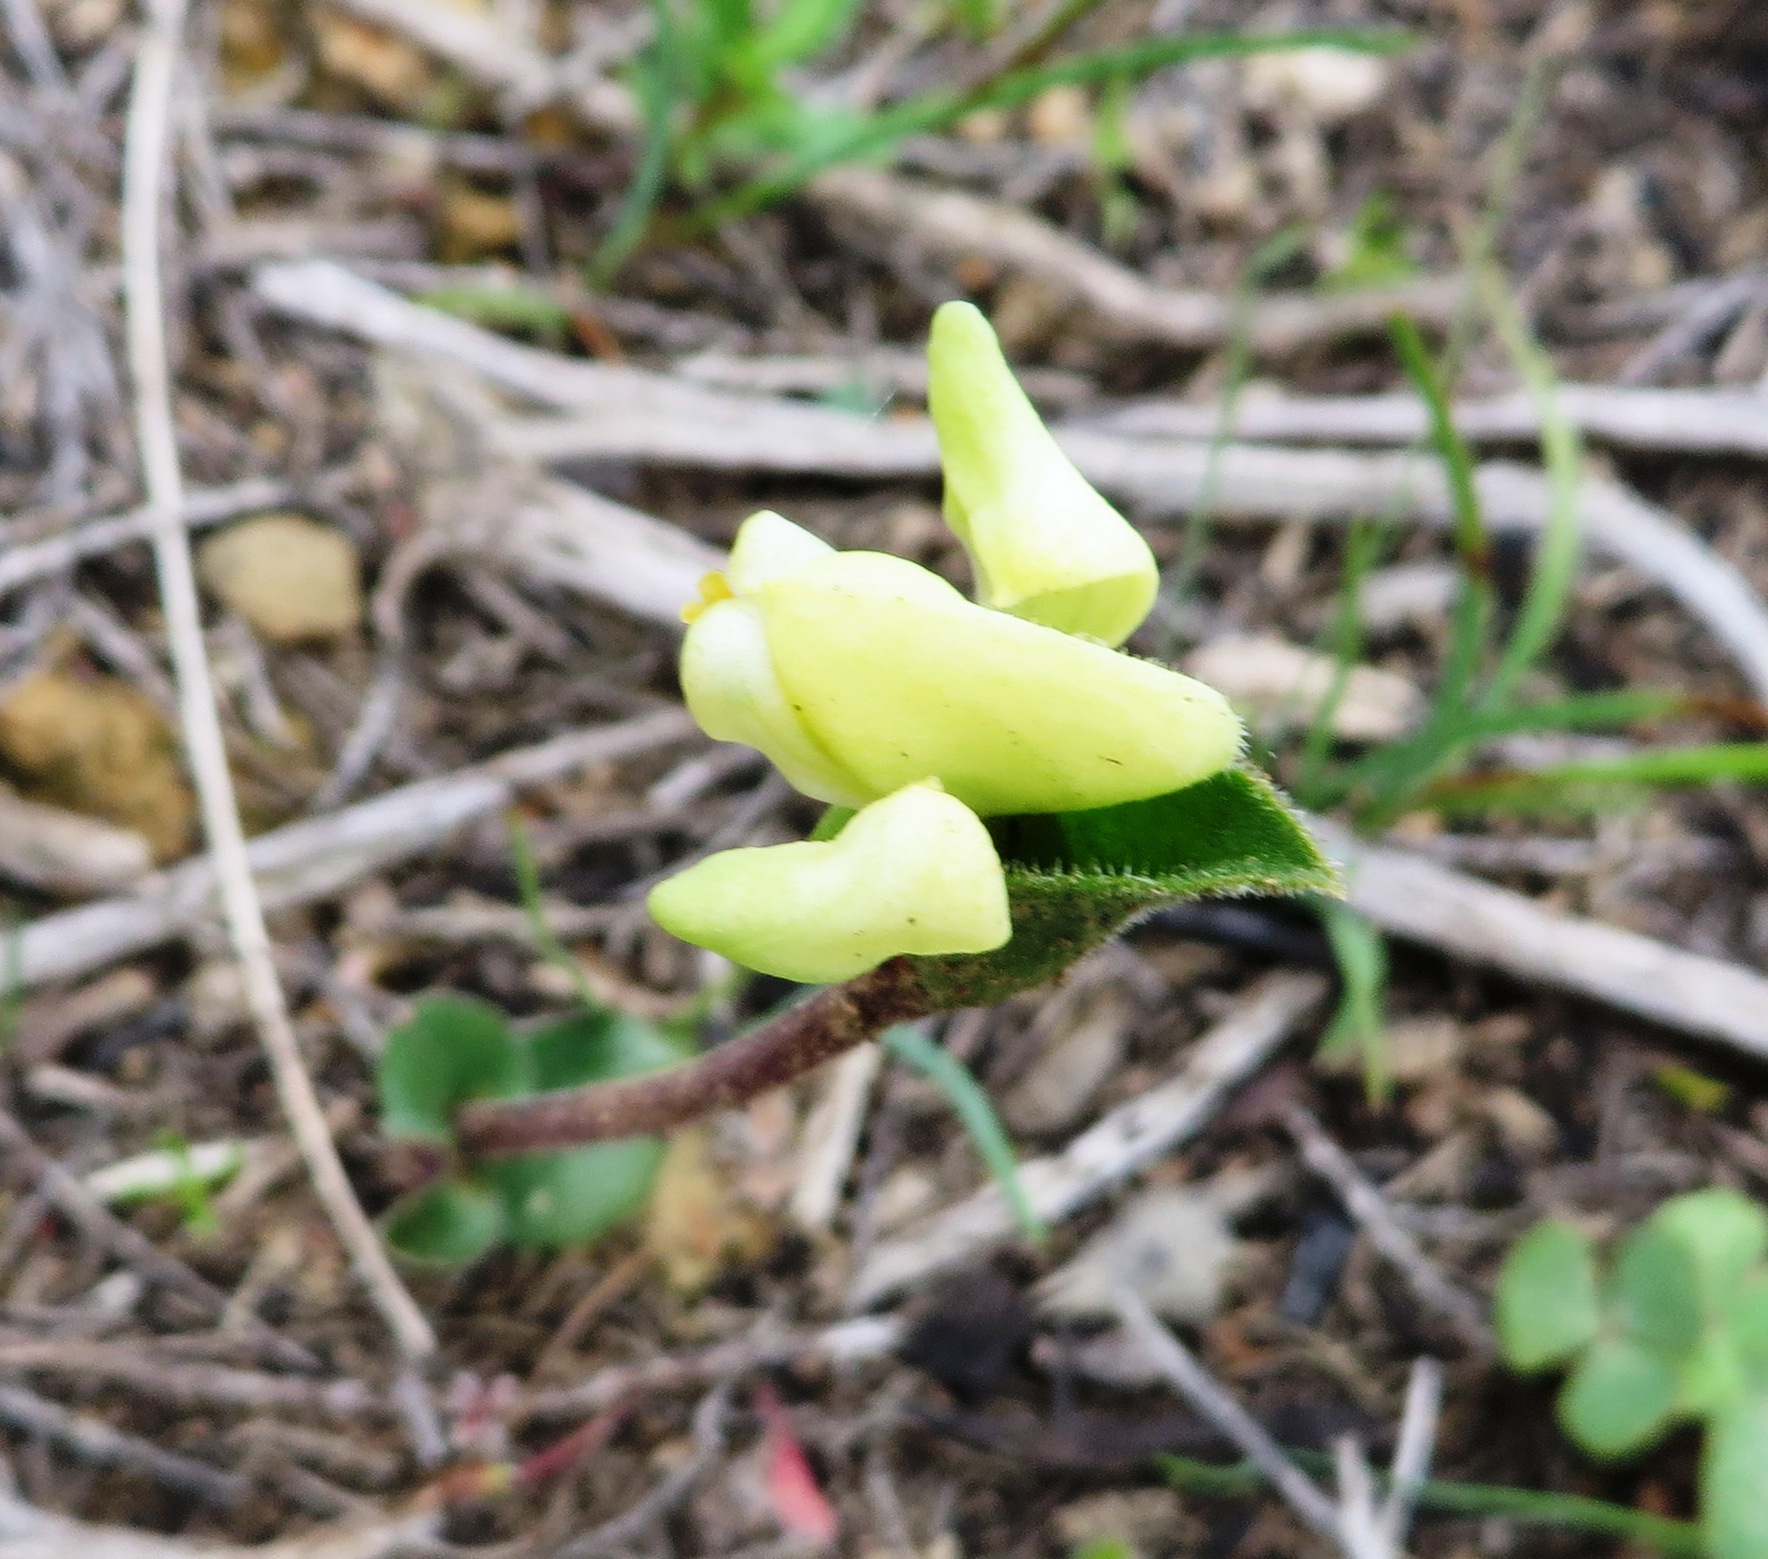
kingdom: Plantae
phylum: Tracheophyta
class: Liliopsida
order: Asparagales
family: Orchidaceae
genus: Disperis
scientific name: Disperis villosa
